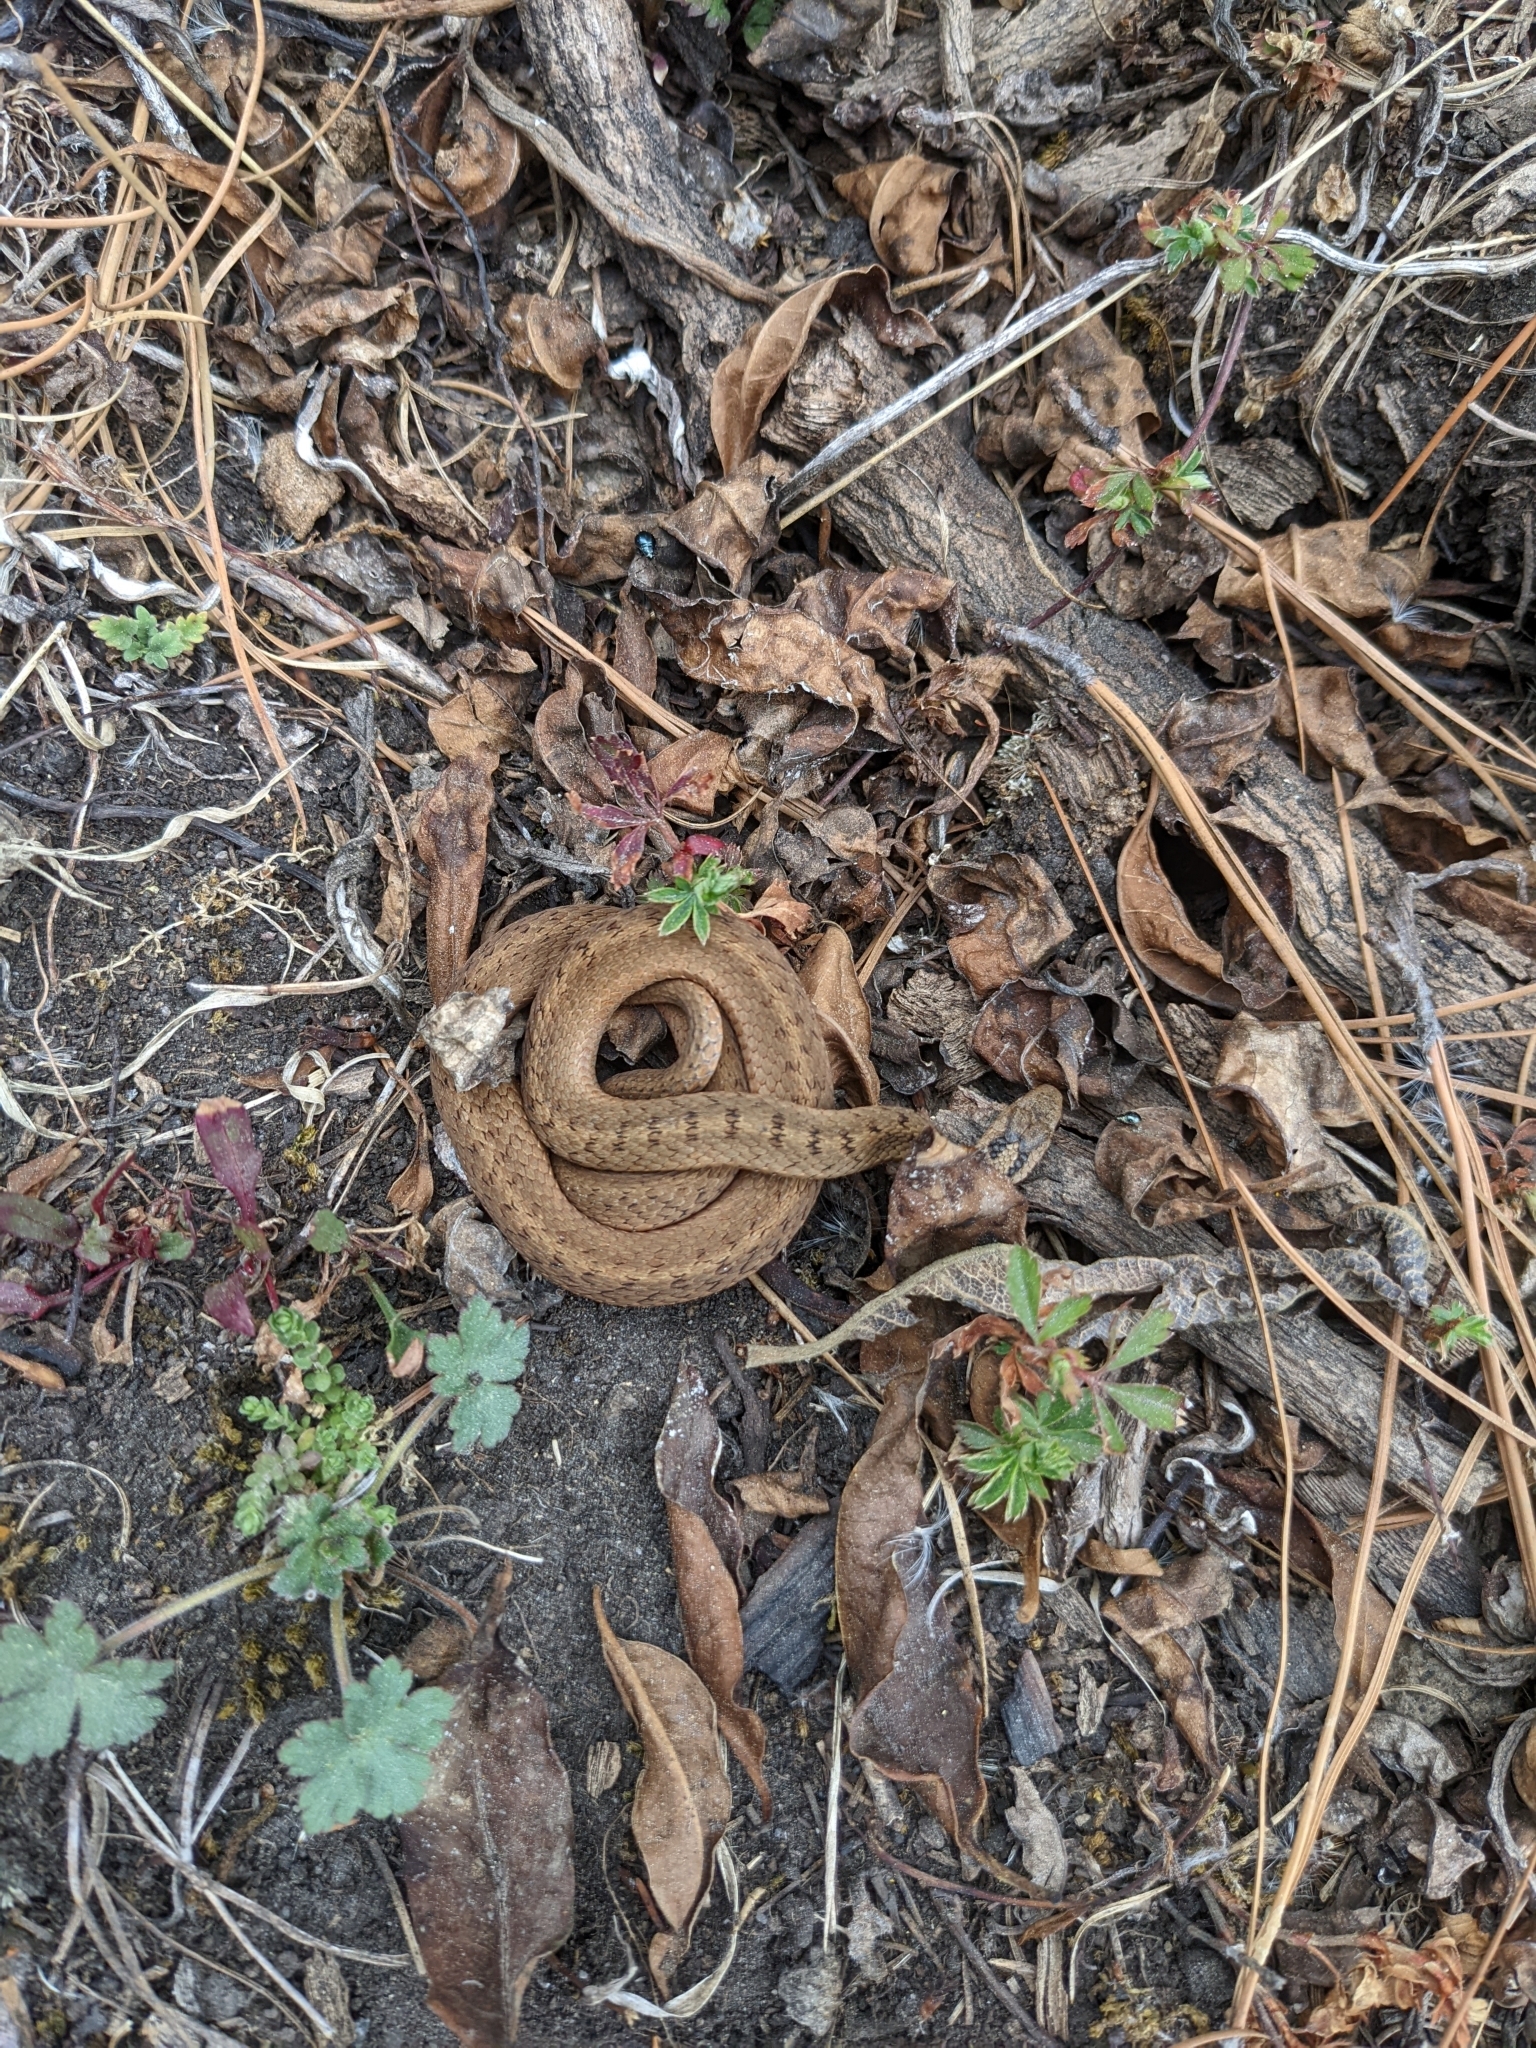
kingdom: Animalia
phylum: Chordata
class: Squamata
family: Colubridae
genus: Storeria
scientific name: Storeria storerioides
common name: Mexican brown snake
